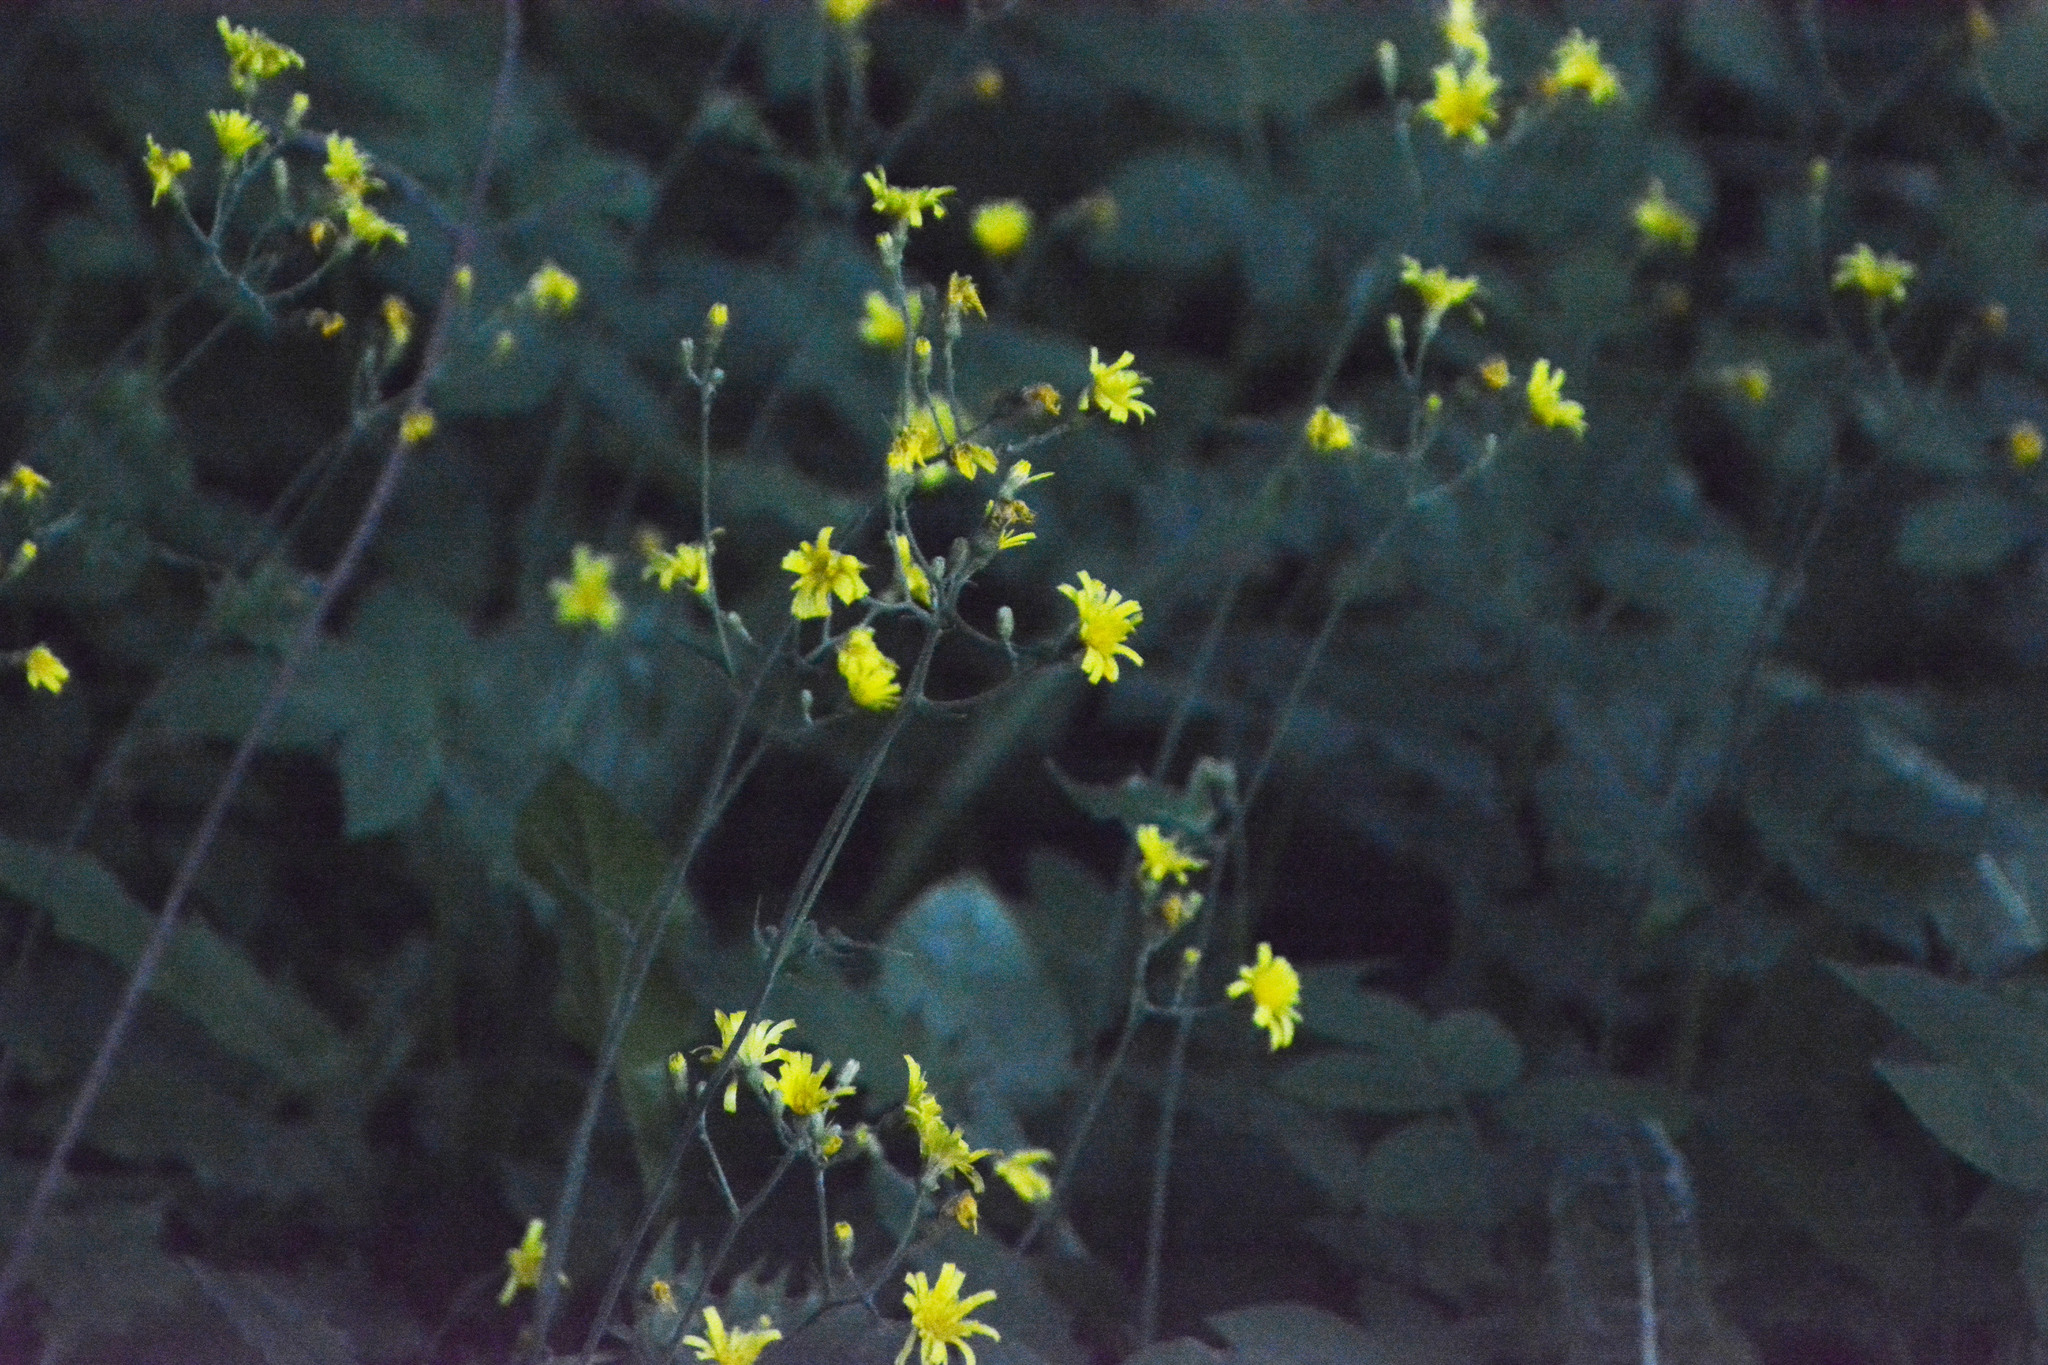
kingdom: Plantae
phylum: Tracheophyta
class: Magnoliopsida
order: Asterales
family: Asteraceae
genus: Hieracium
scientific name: Hieracium murorum
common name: Wall hawkweed
